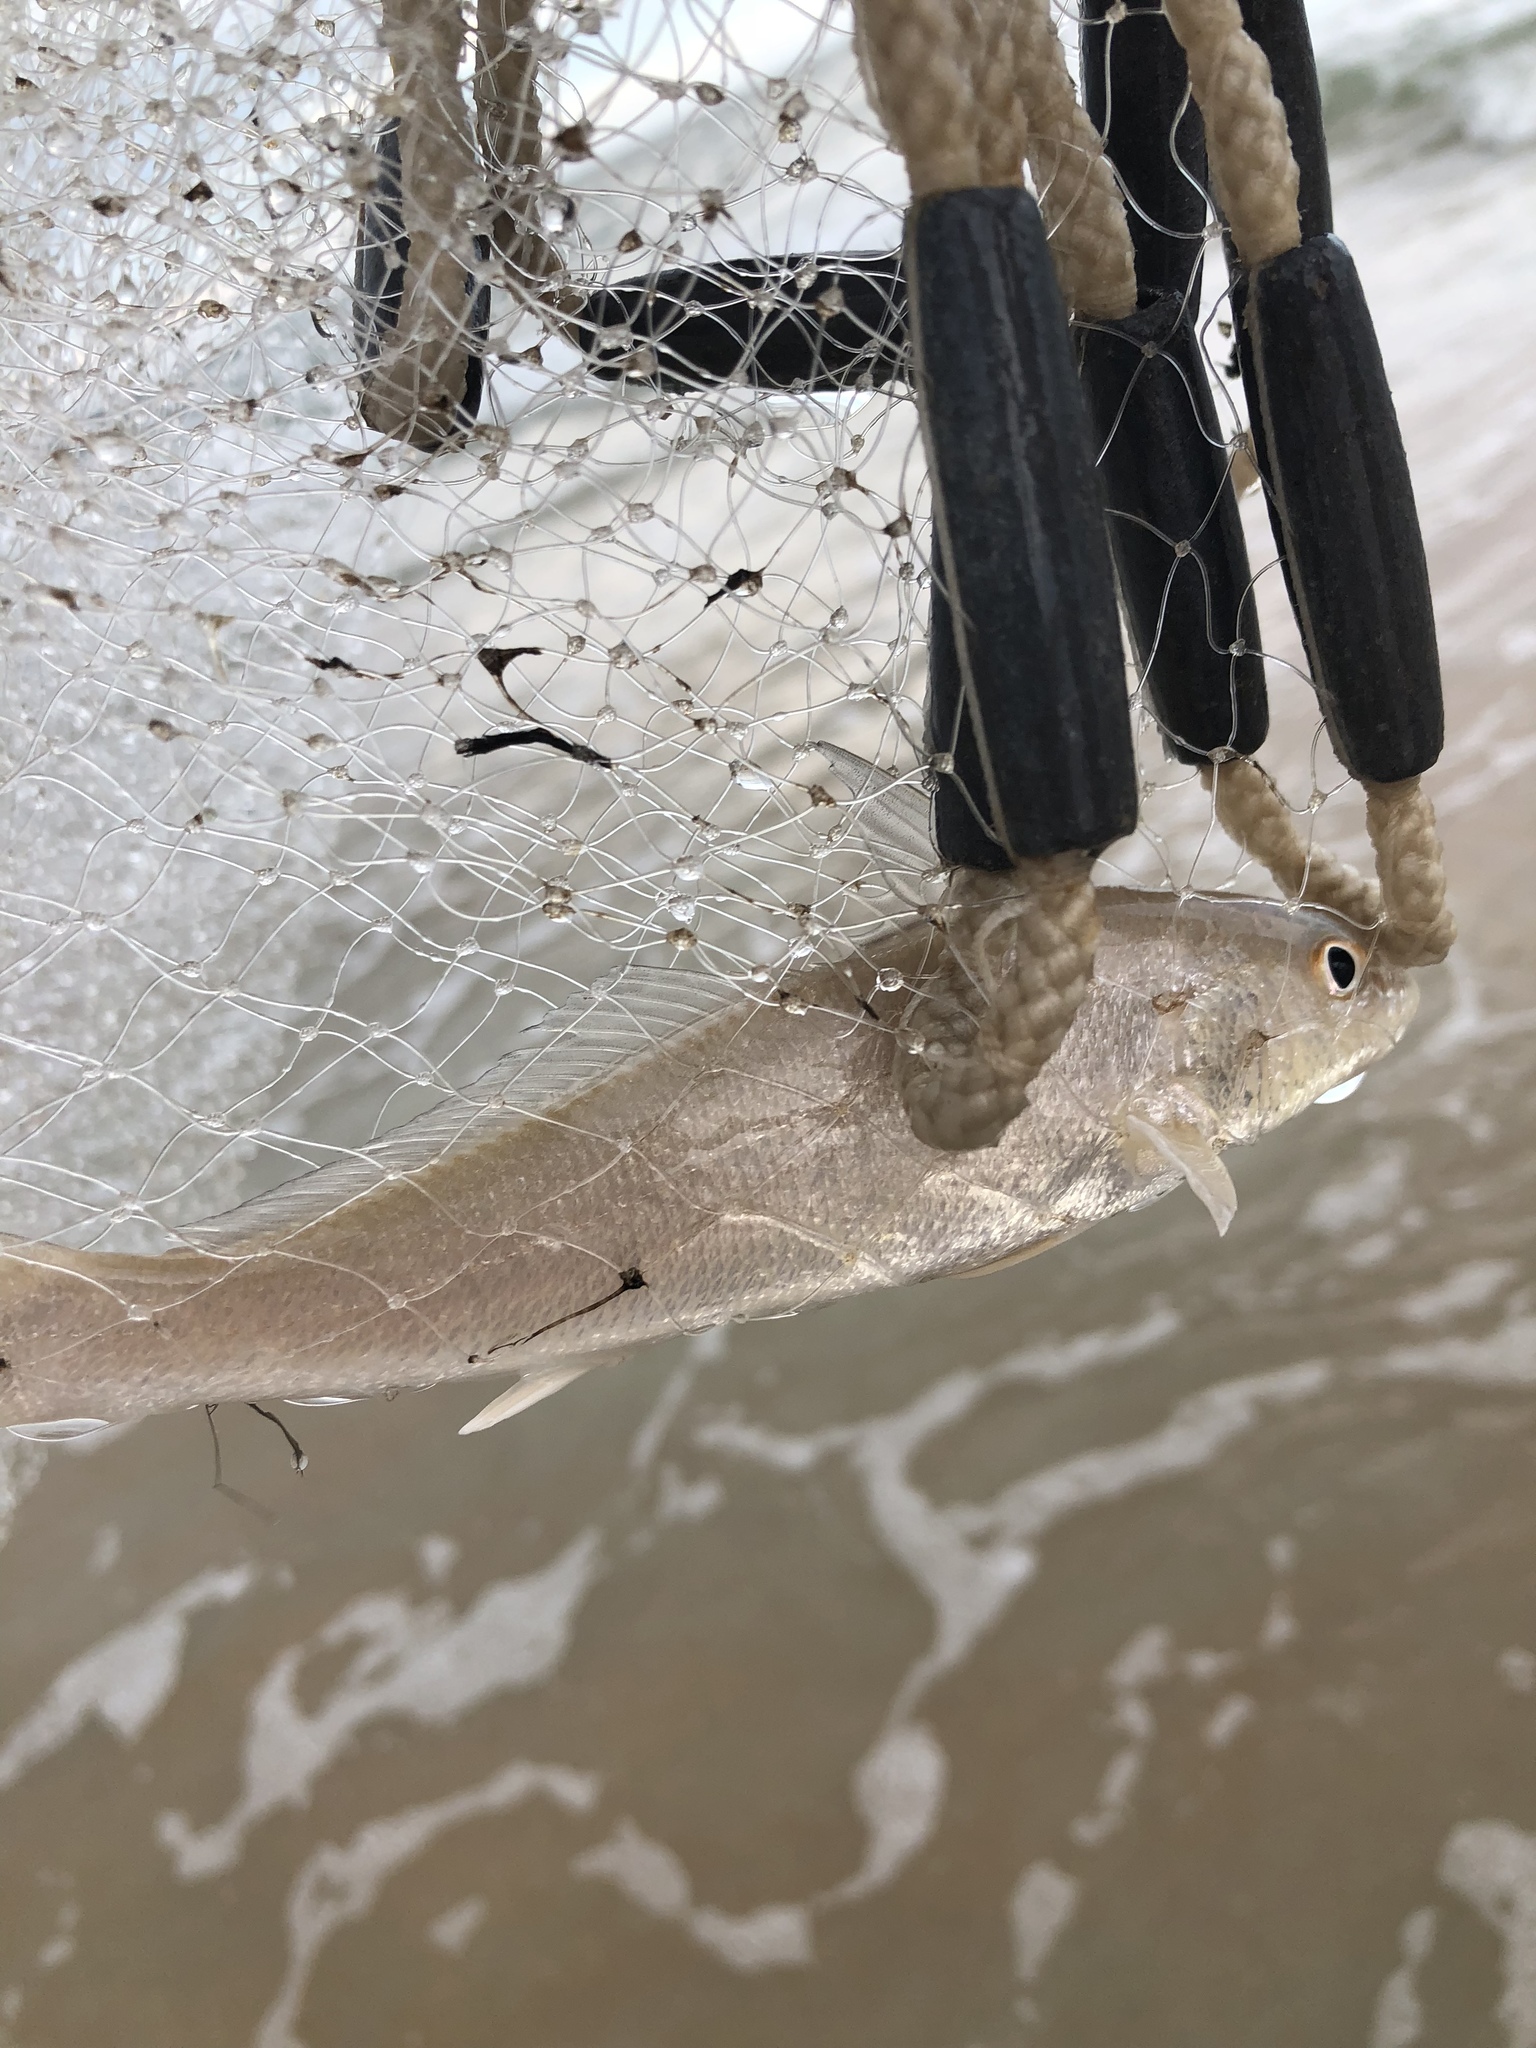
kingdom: Animalia
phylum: Chordata
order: Perciformes
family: Sciaenidae
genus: Menticirrhus
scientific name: Menticirrhus littoralis
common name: Gulf kingcroaker
